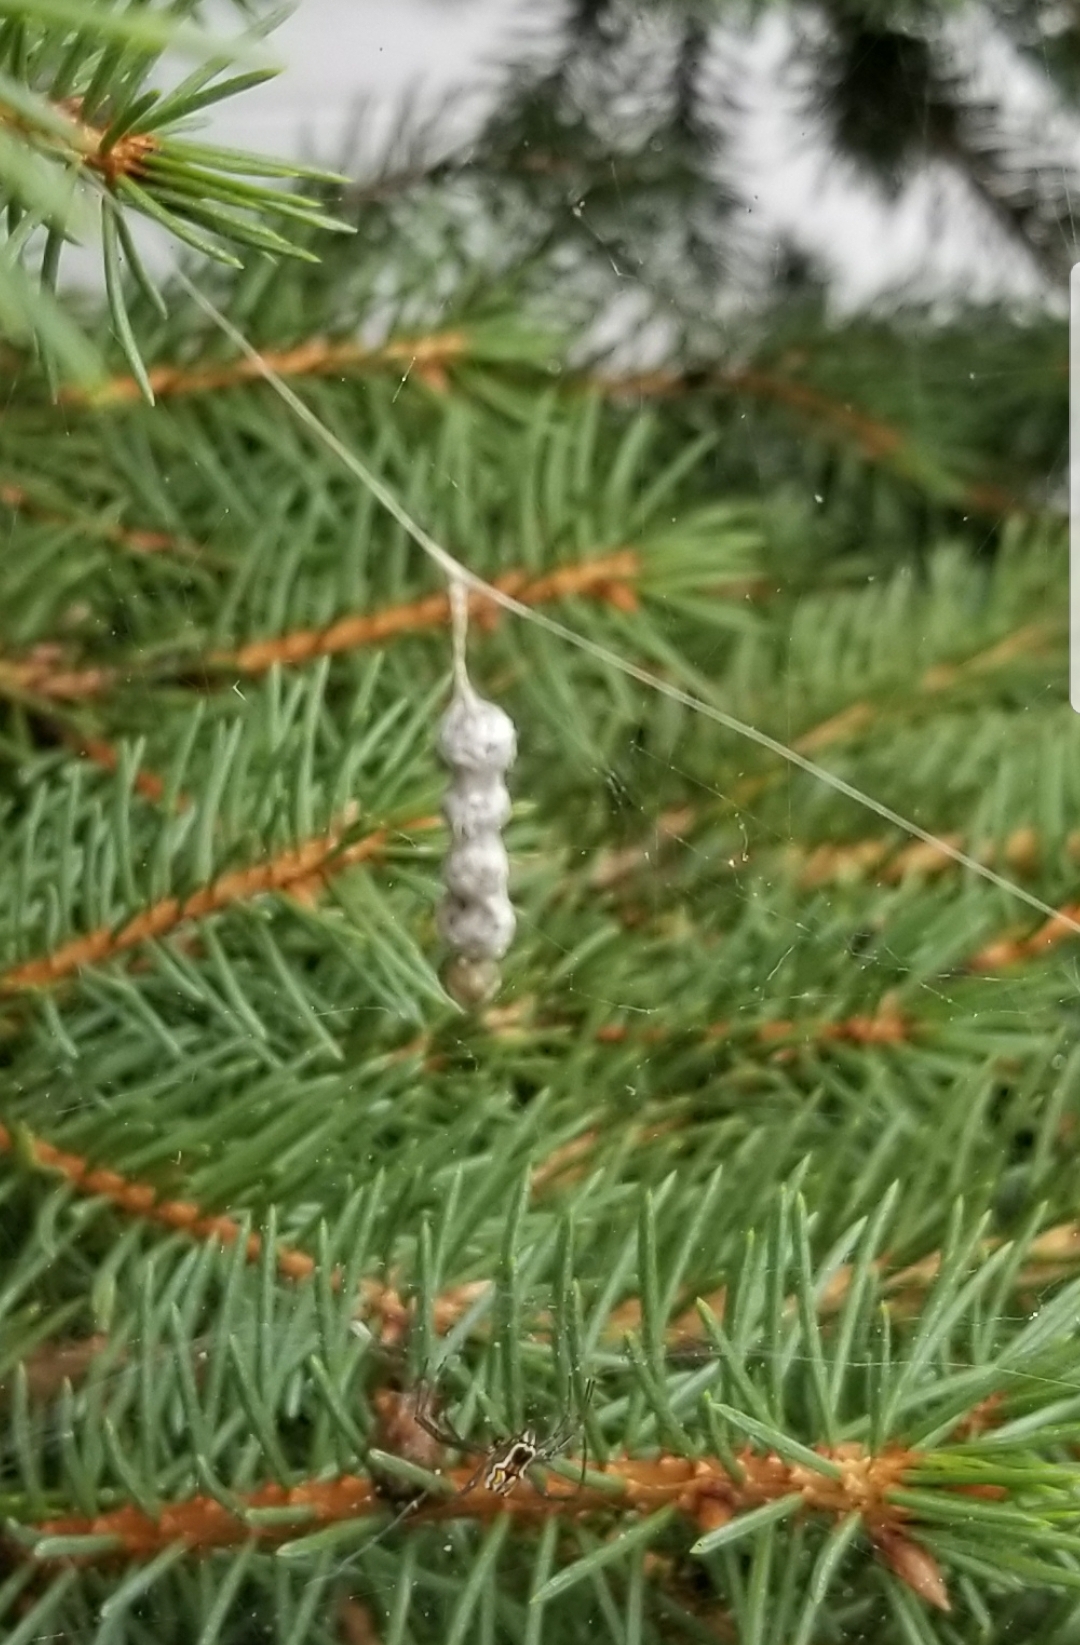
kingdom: Animalia
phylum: Arthropoda
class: Arachnida
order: Araneae
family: Araneidae
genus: Mecynogea
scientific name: Mecynogea lemniscata
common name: Orb weavers
